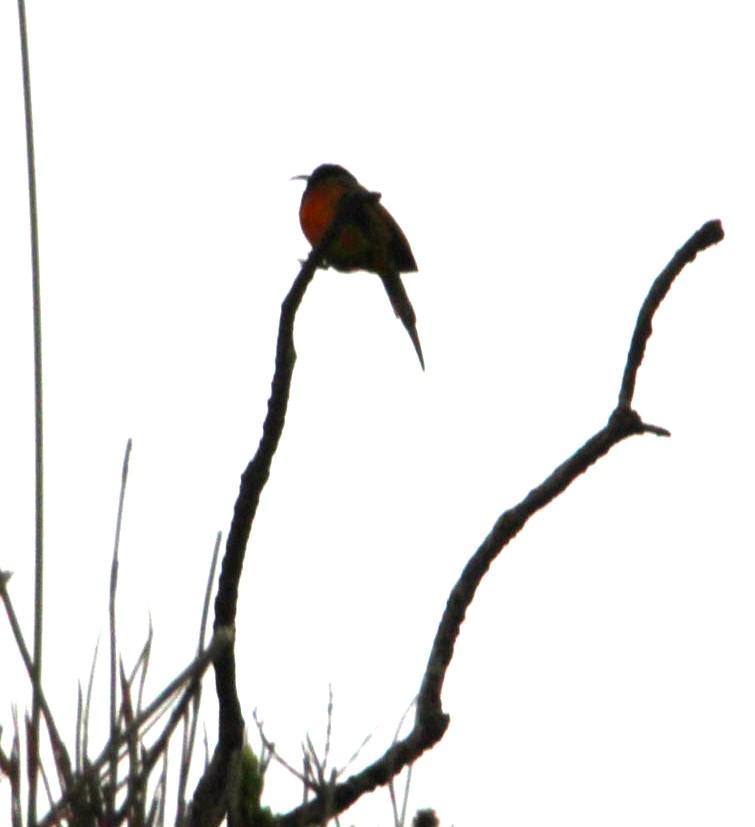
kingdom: Animalia
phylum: Chordata
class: Aves
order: Passeriformes
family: Nectariniidae
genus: Cinnyris
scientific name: Cinnyris chalybeus
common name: Southern double-collared sunbird
